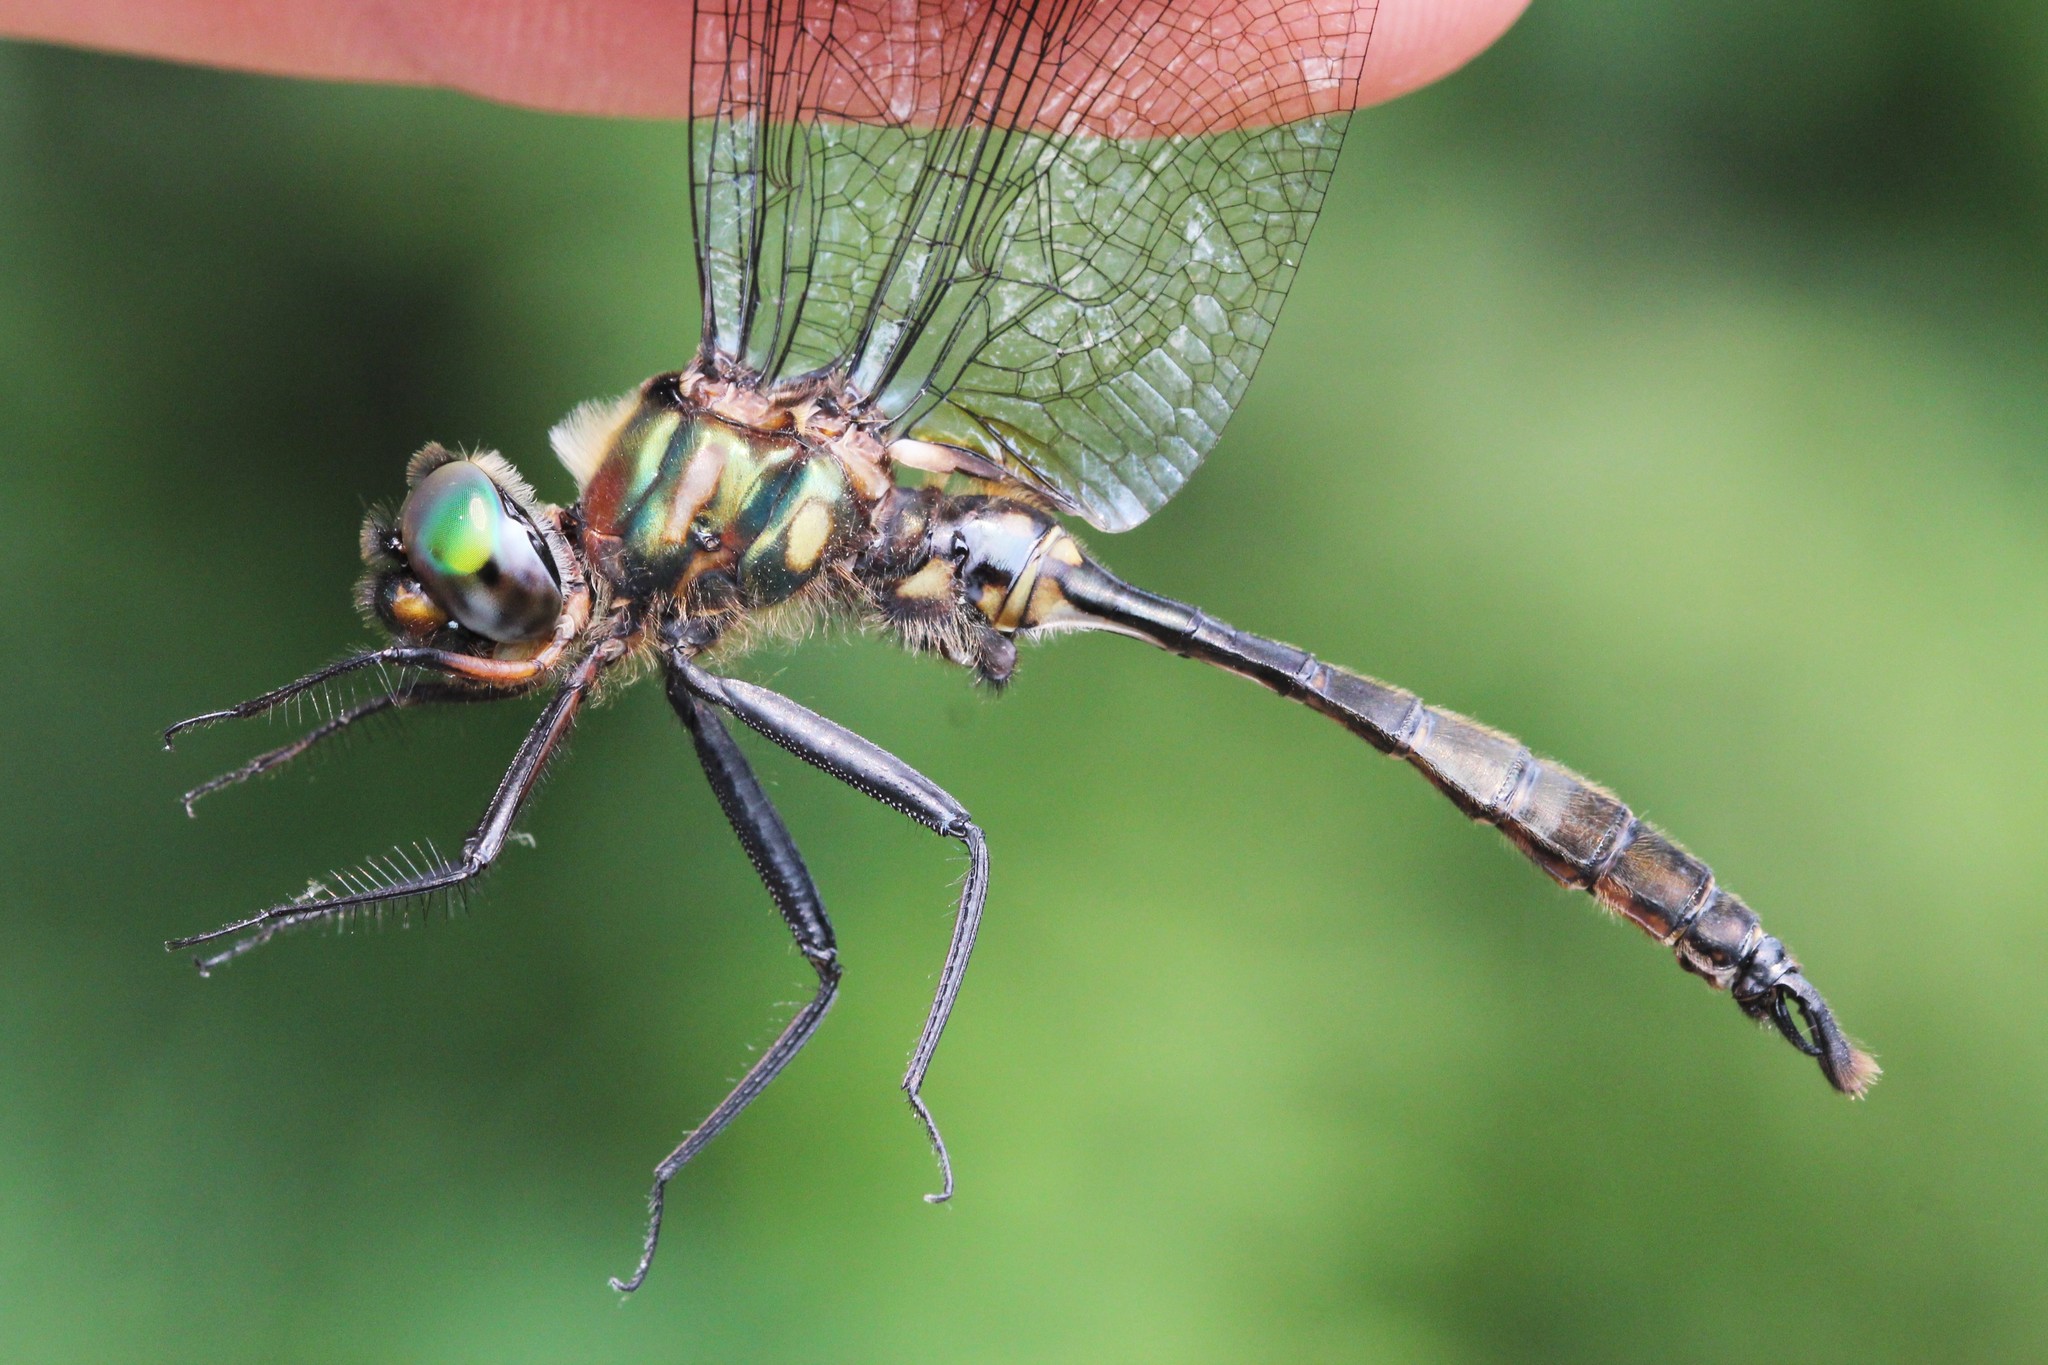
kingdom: Animalia
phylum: Arthropoda
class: Insecta
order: Odonata
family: Corduliidae
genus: Somatochlora
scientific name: Somatochlora walshii
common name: Brush-tipped emerald
